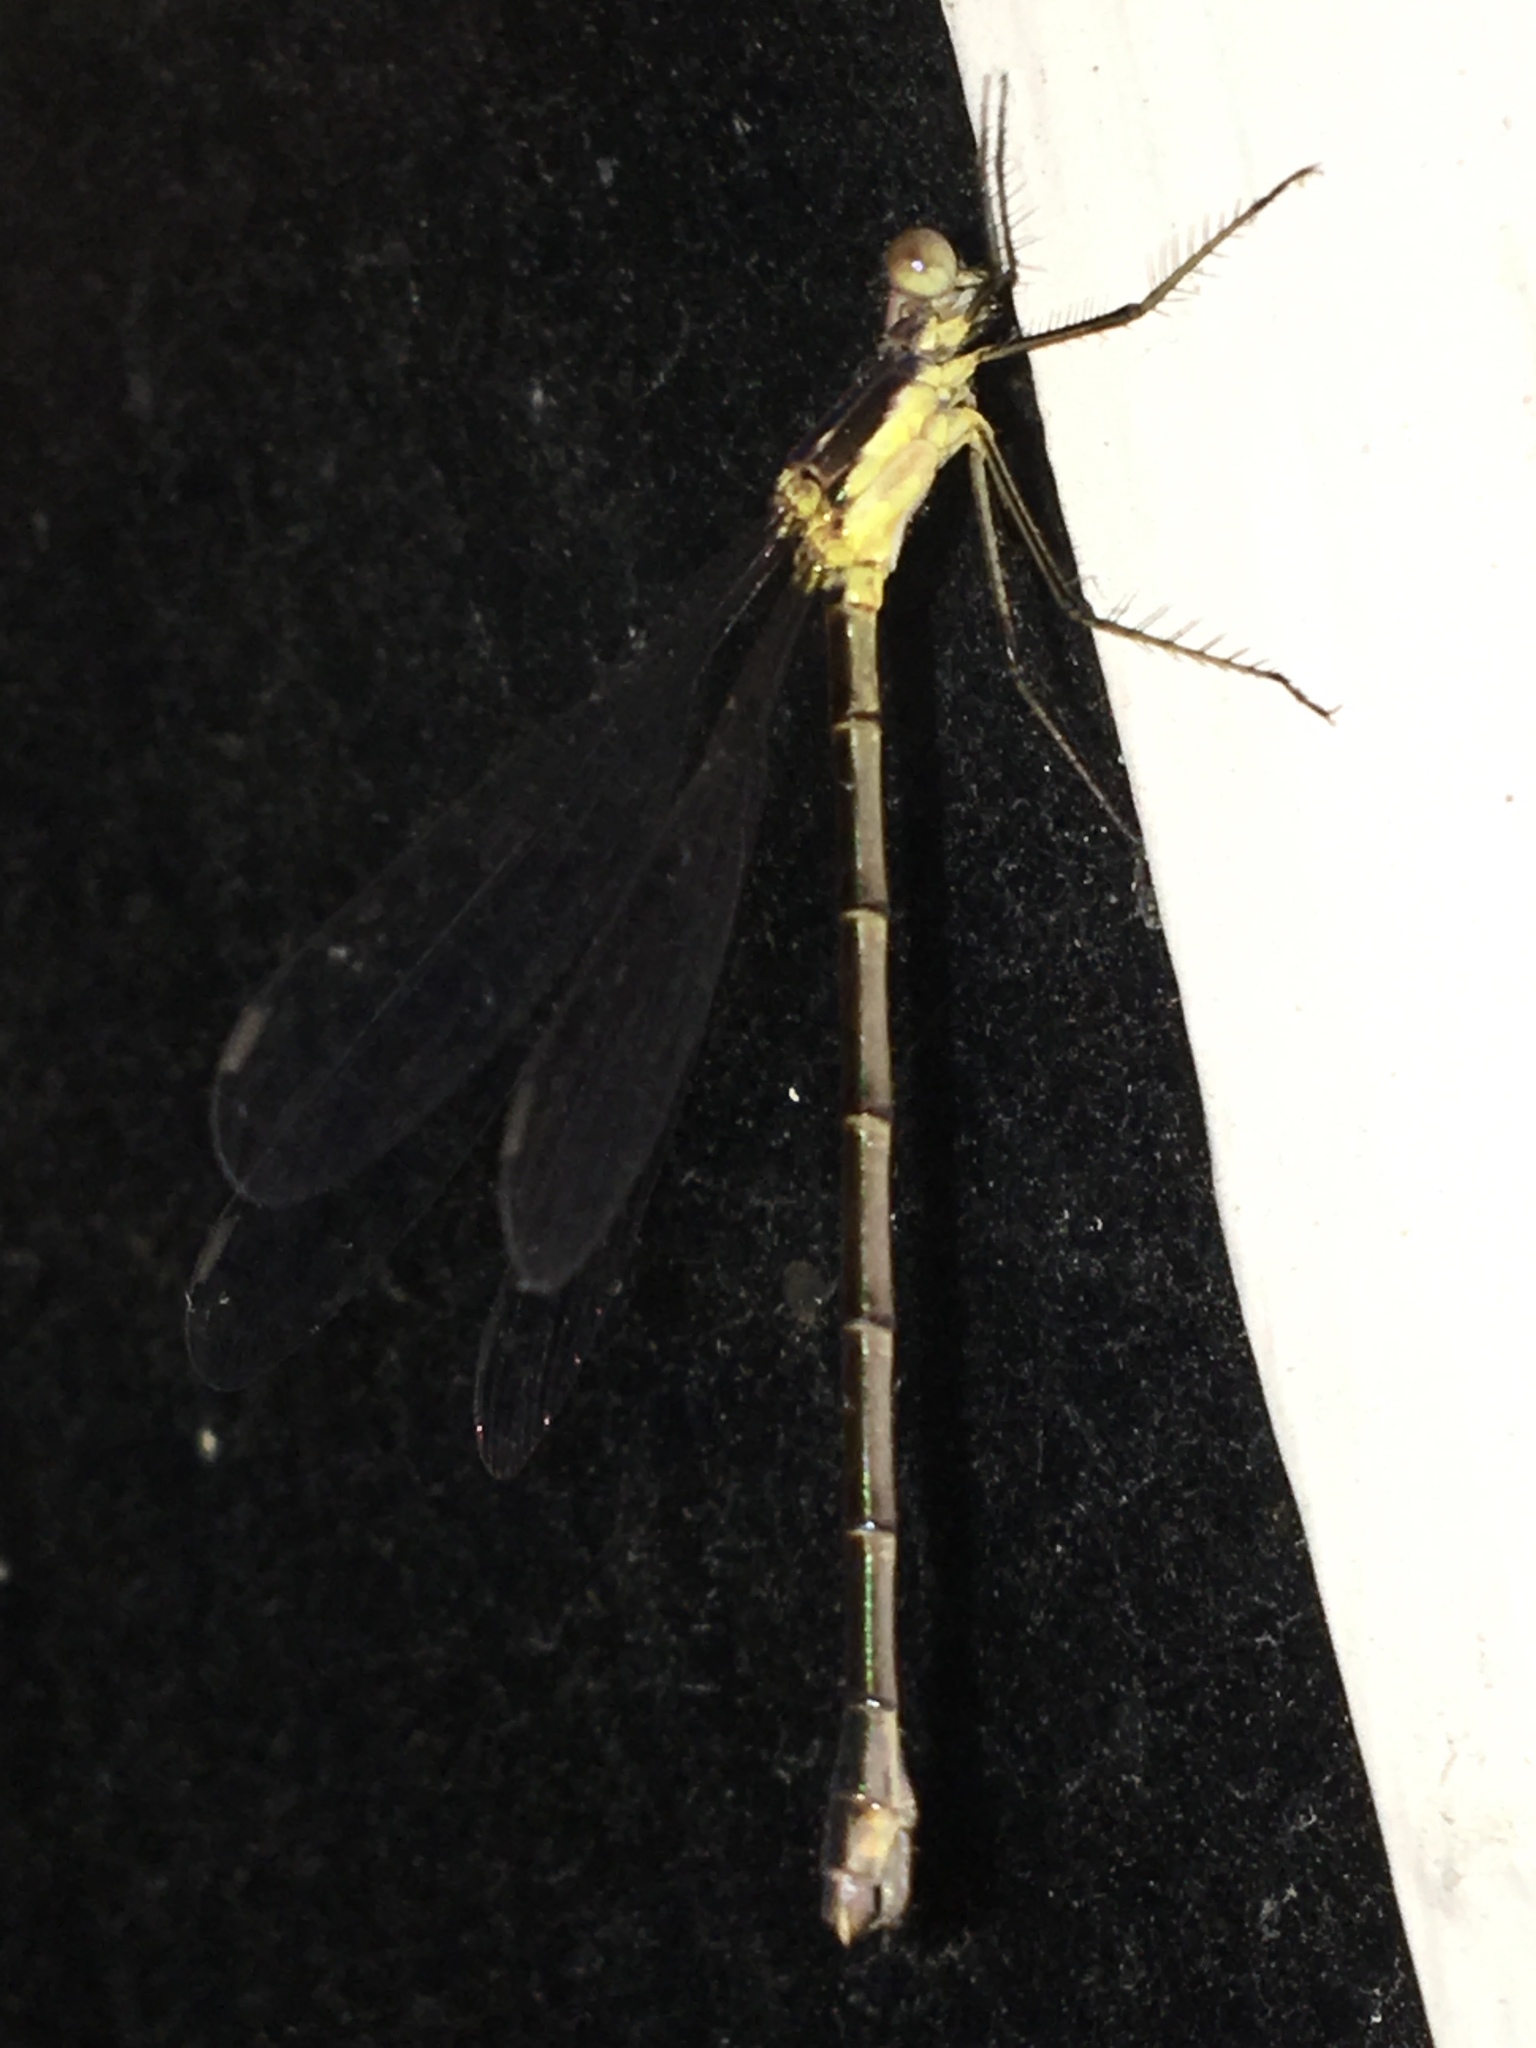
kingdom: Animalia
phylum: Arthropoda
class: Insecta
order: Odonata
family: Lestidae
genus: Lestes
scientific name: Lestes inaequalis
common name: Elegant spreadwing
